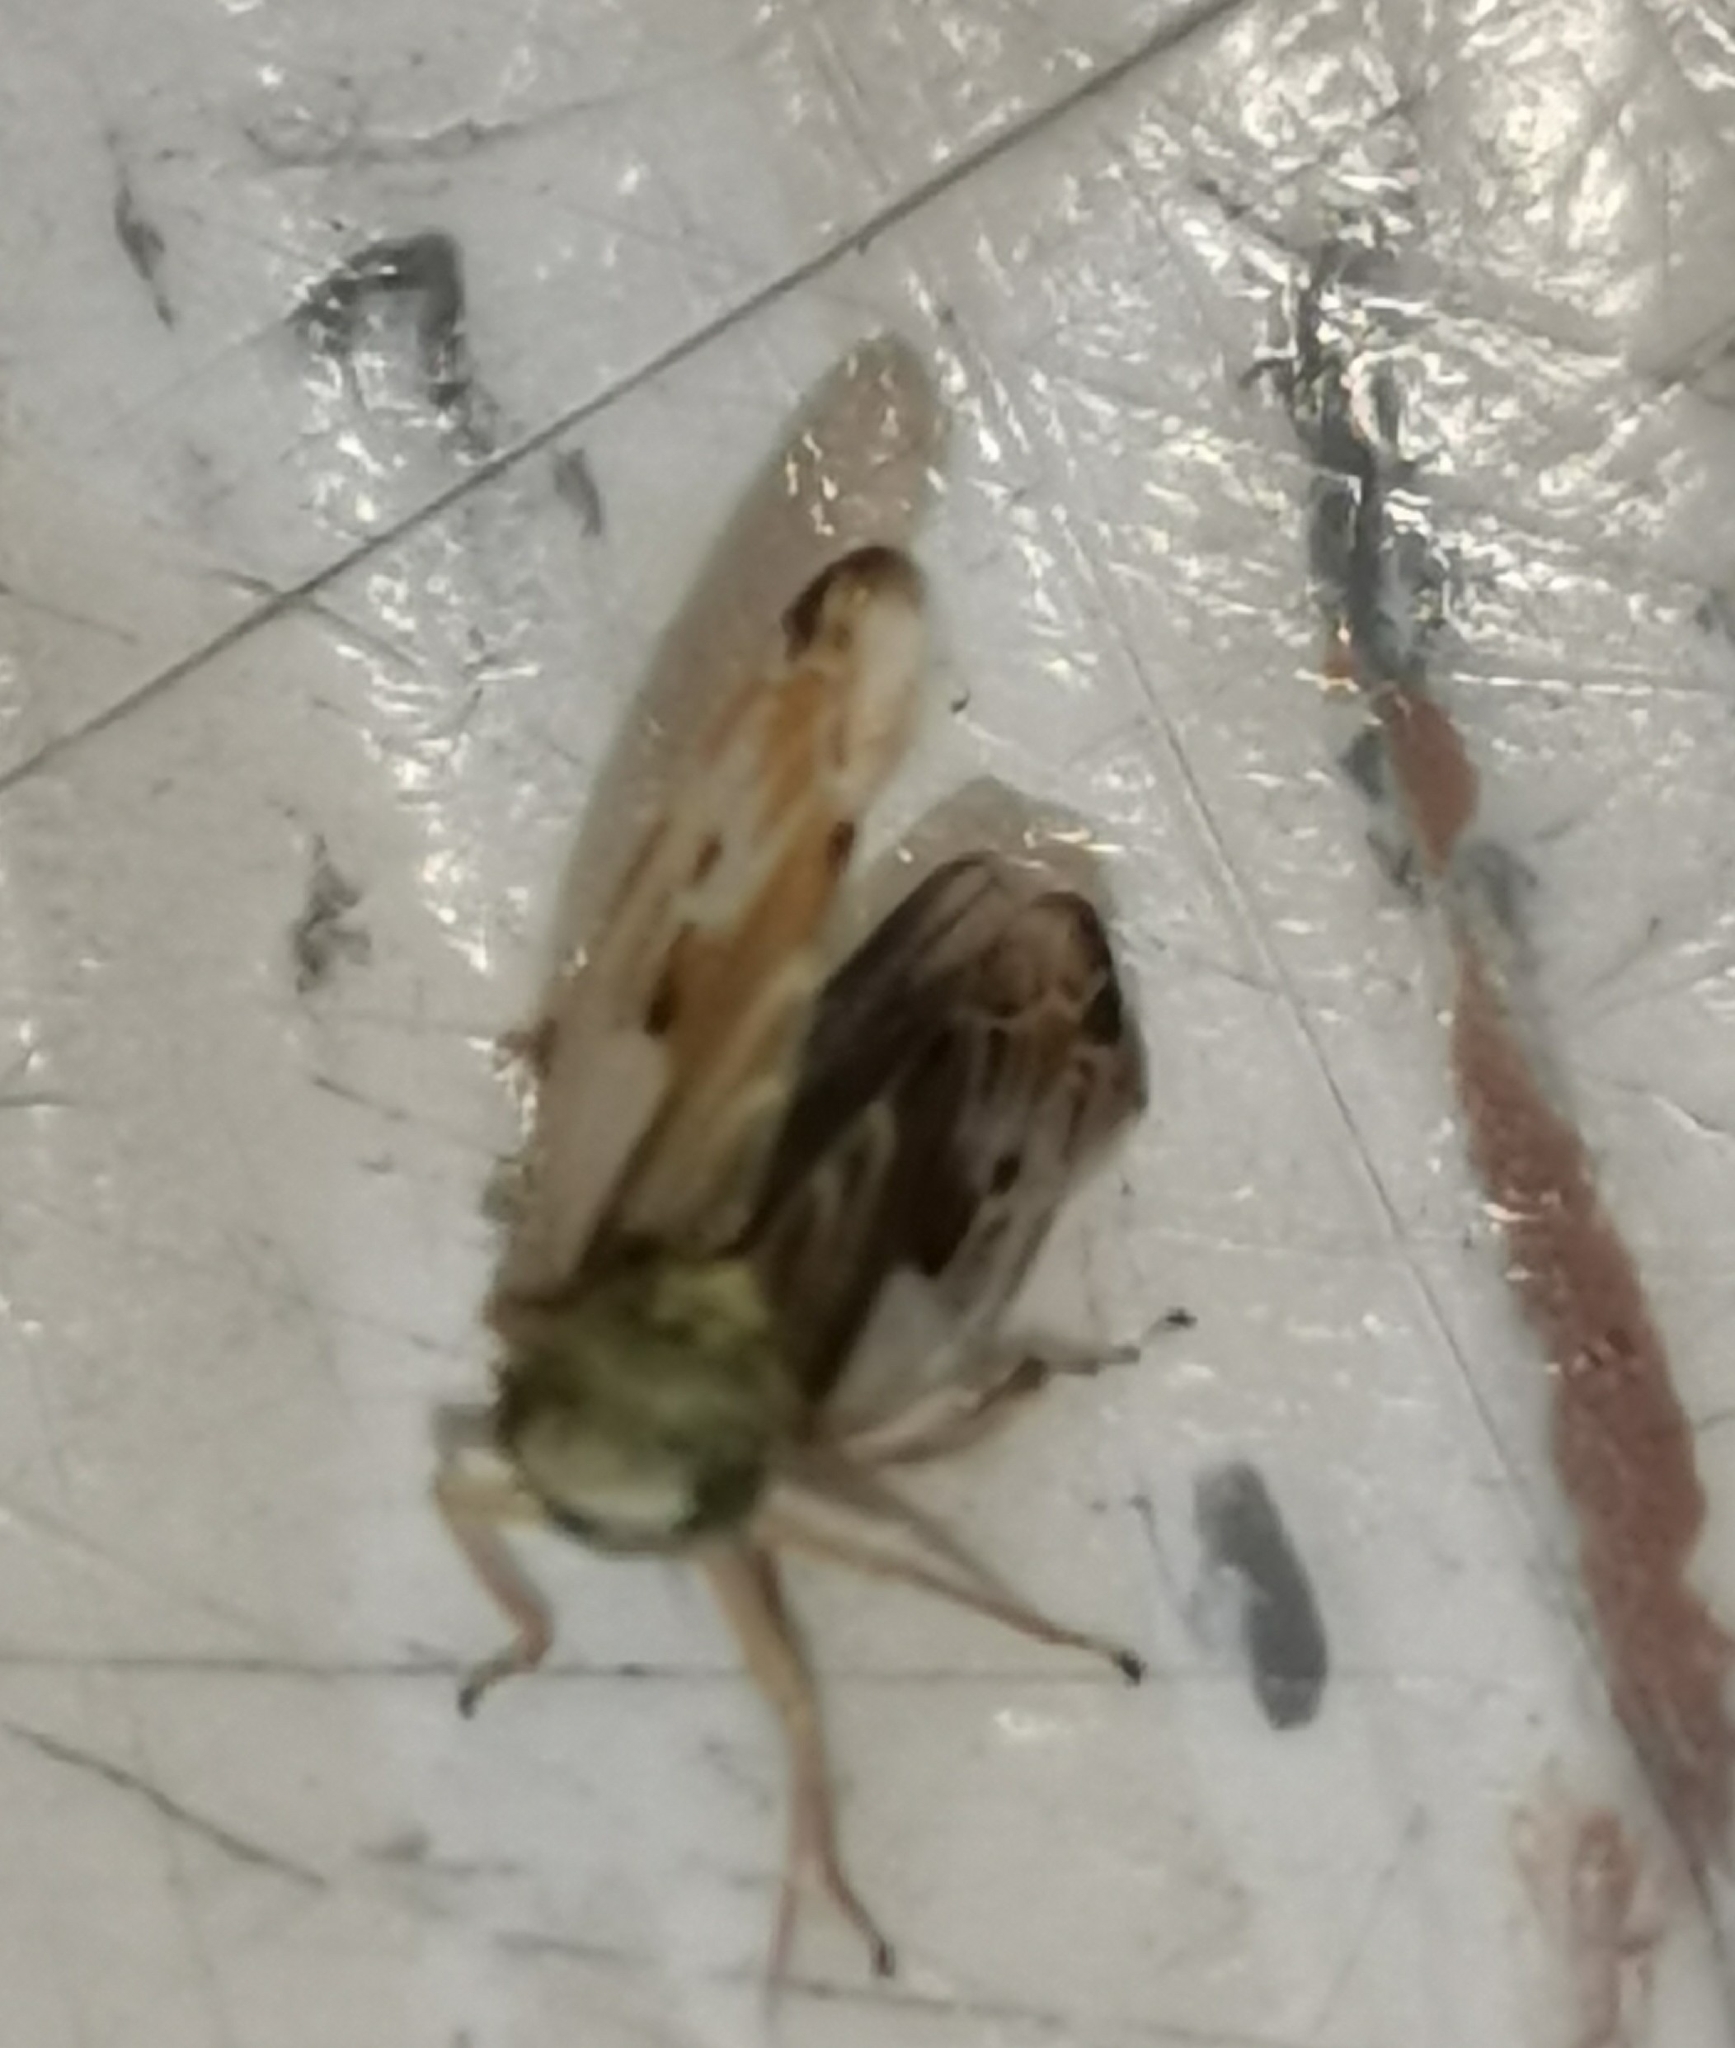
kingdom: Animalia
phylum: Arthropoda
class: Insecta
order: Hemiptera
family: Cicadellidae
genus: Pithyotettix
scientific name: Pithyotettix abietinus
